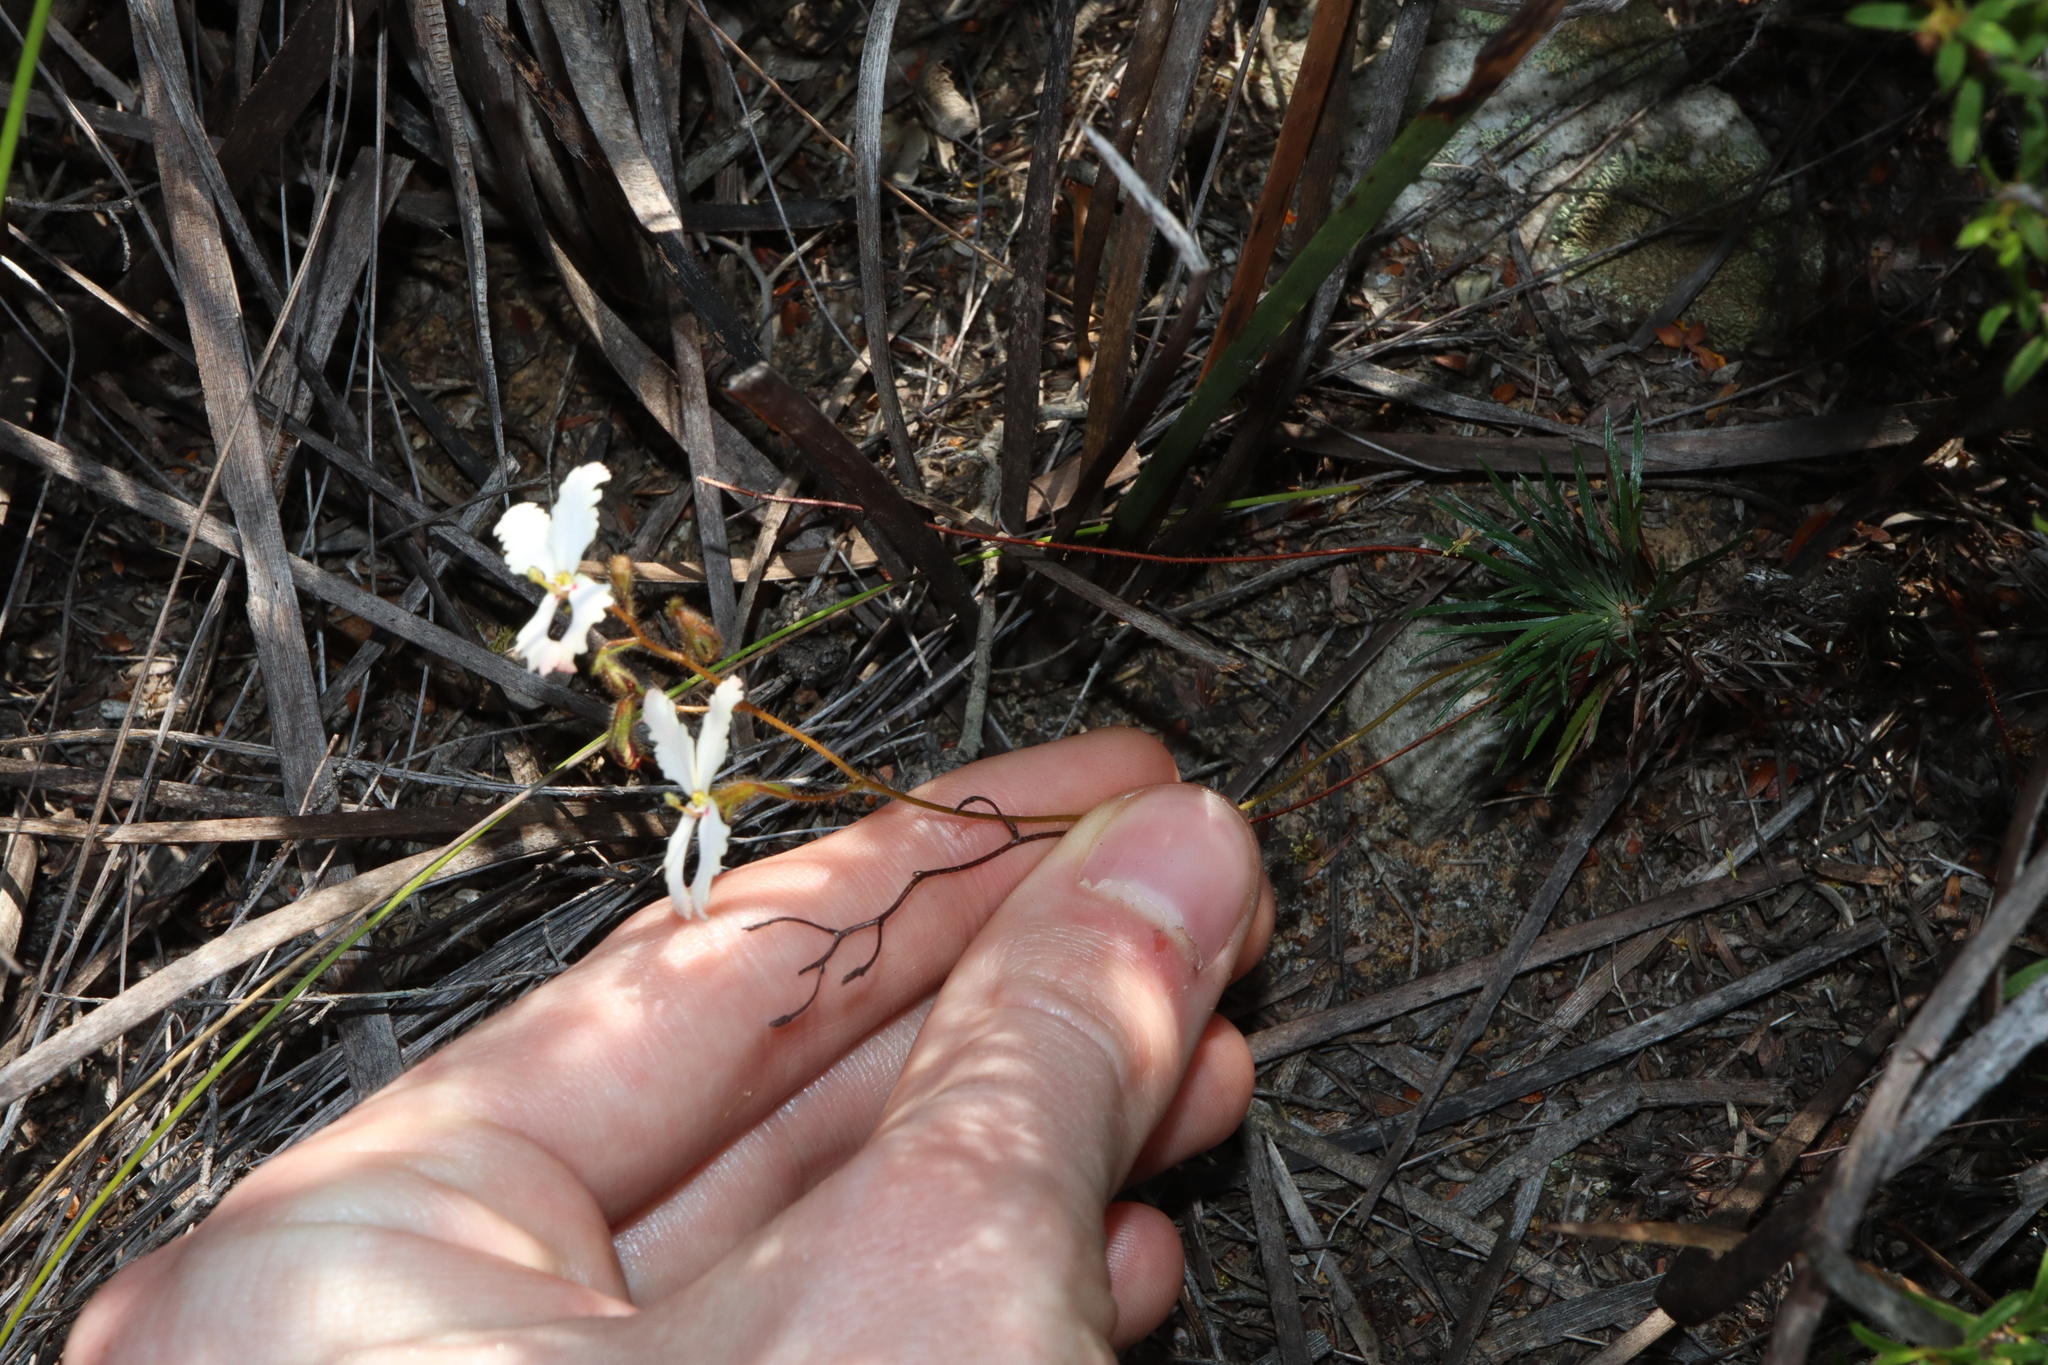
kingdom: Plantae
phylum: Tracheophyta
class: Magnoliopsida
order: Asterales
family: Stylidiaceae
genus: Stylidium
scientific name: Stylidium spinulosum
